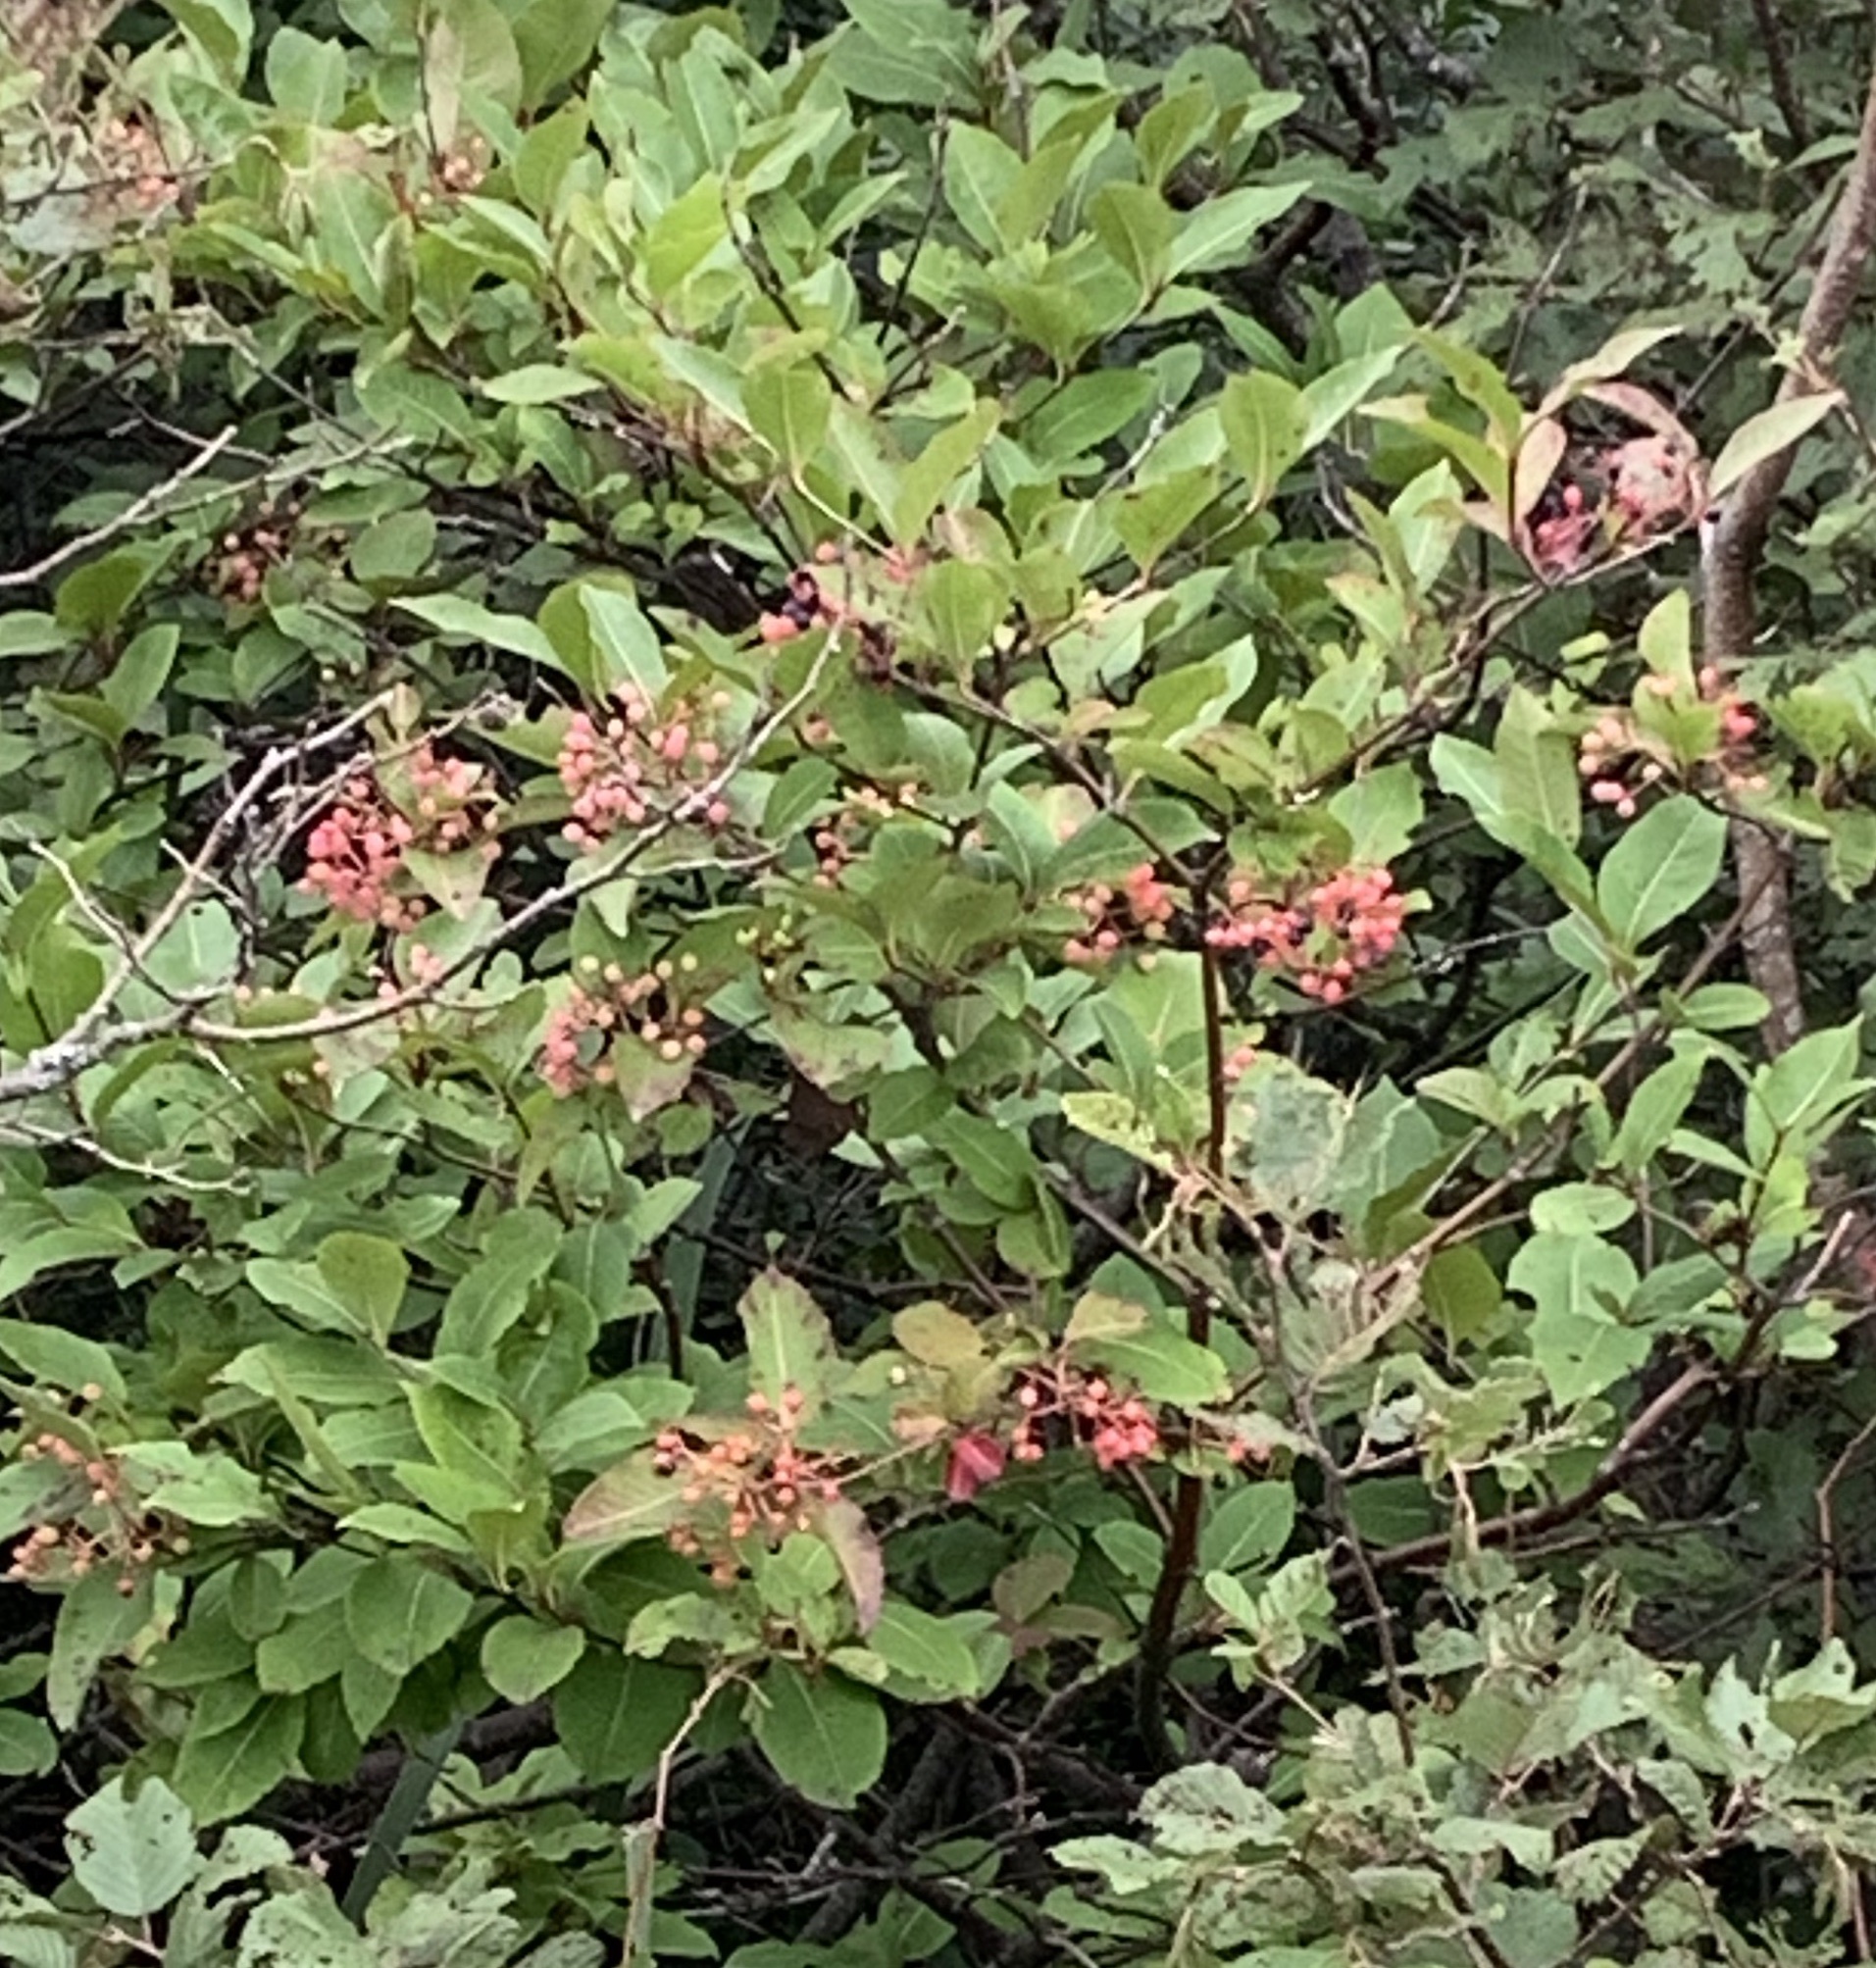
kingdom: Plantae
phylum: Tracheophyta
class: Magnoliopsida
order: Dipsacales
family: Viburnaceae
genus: Viburnum
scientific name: Viburnum cassinoides
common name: Swamp haw
